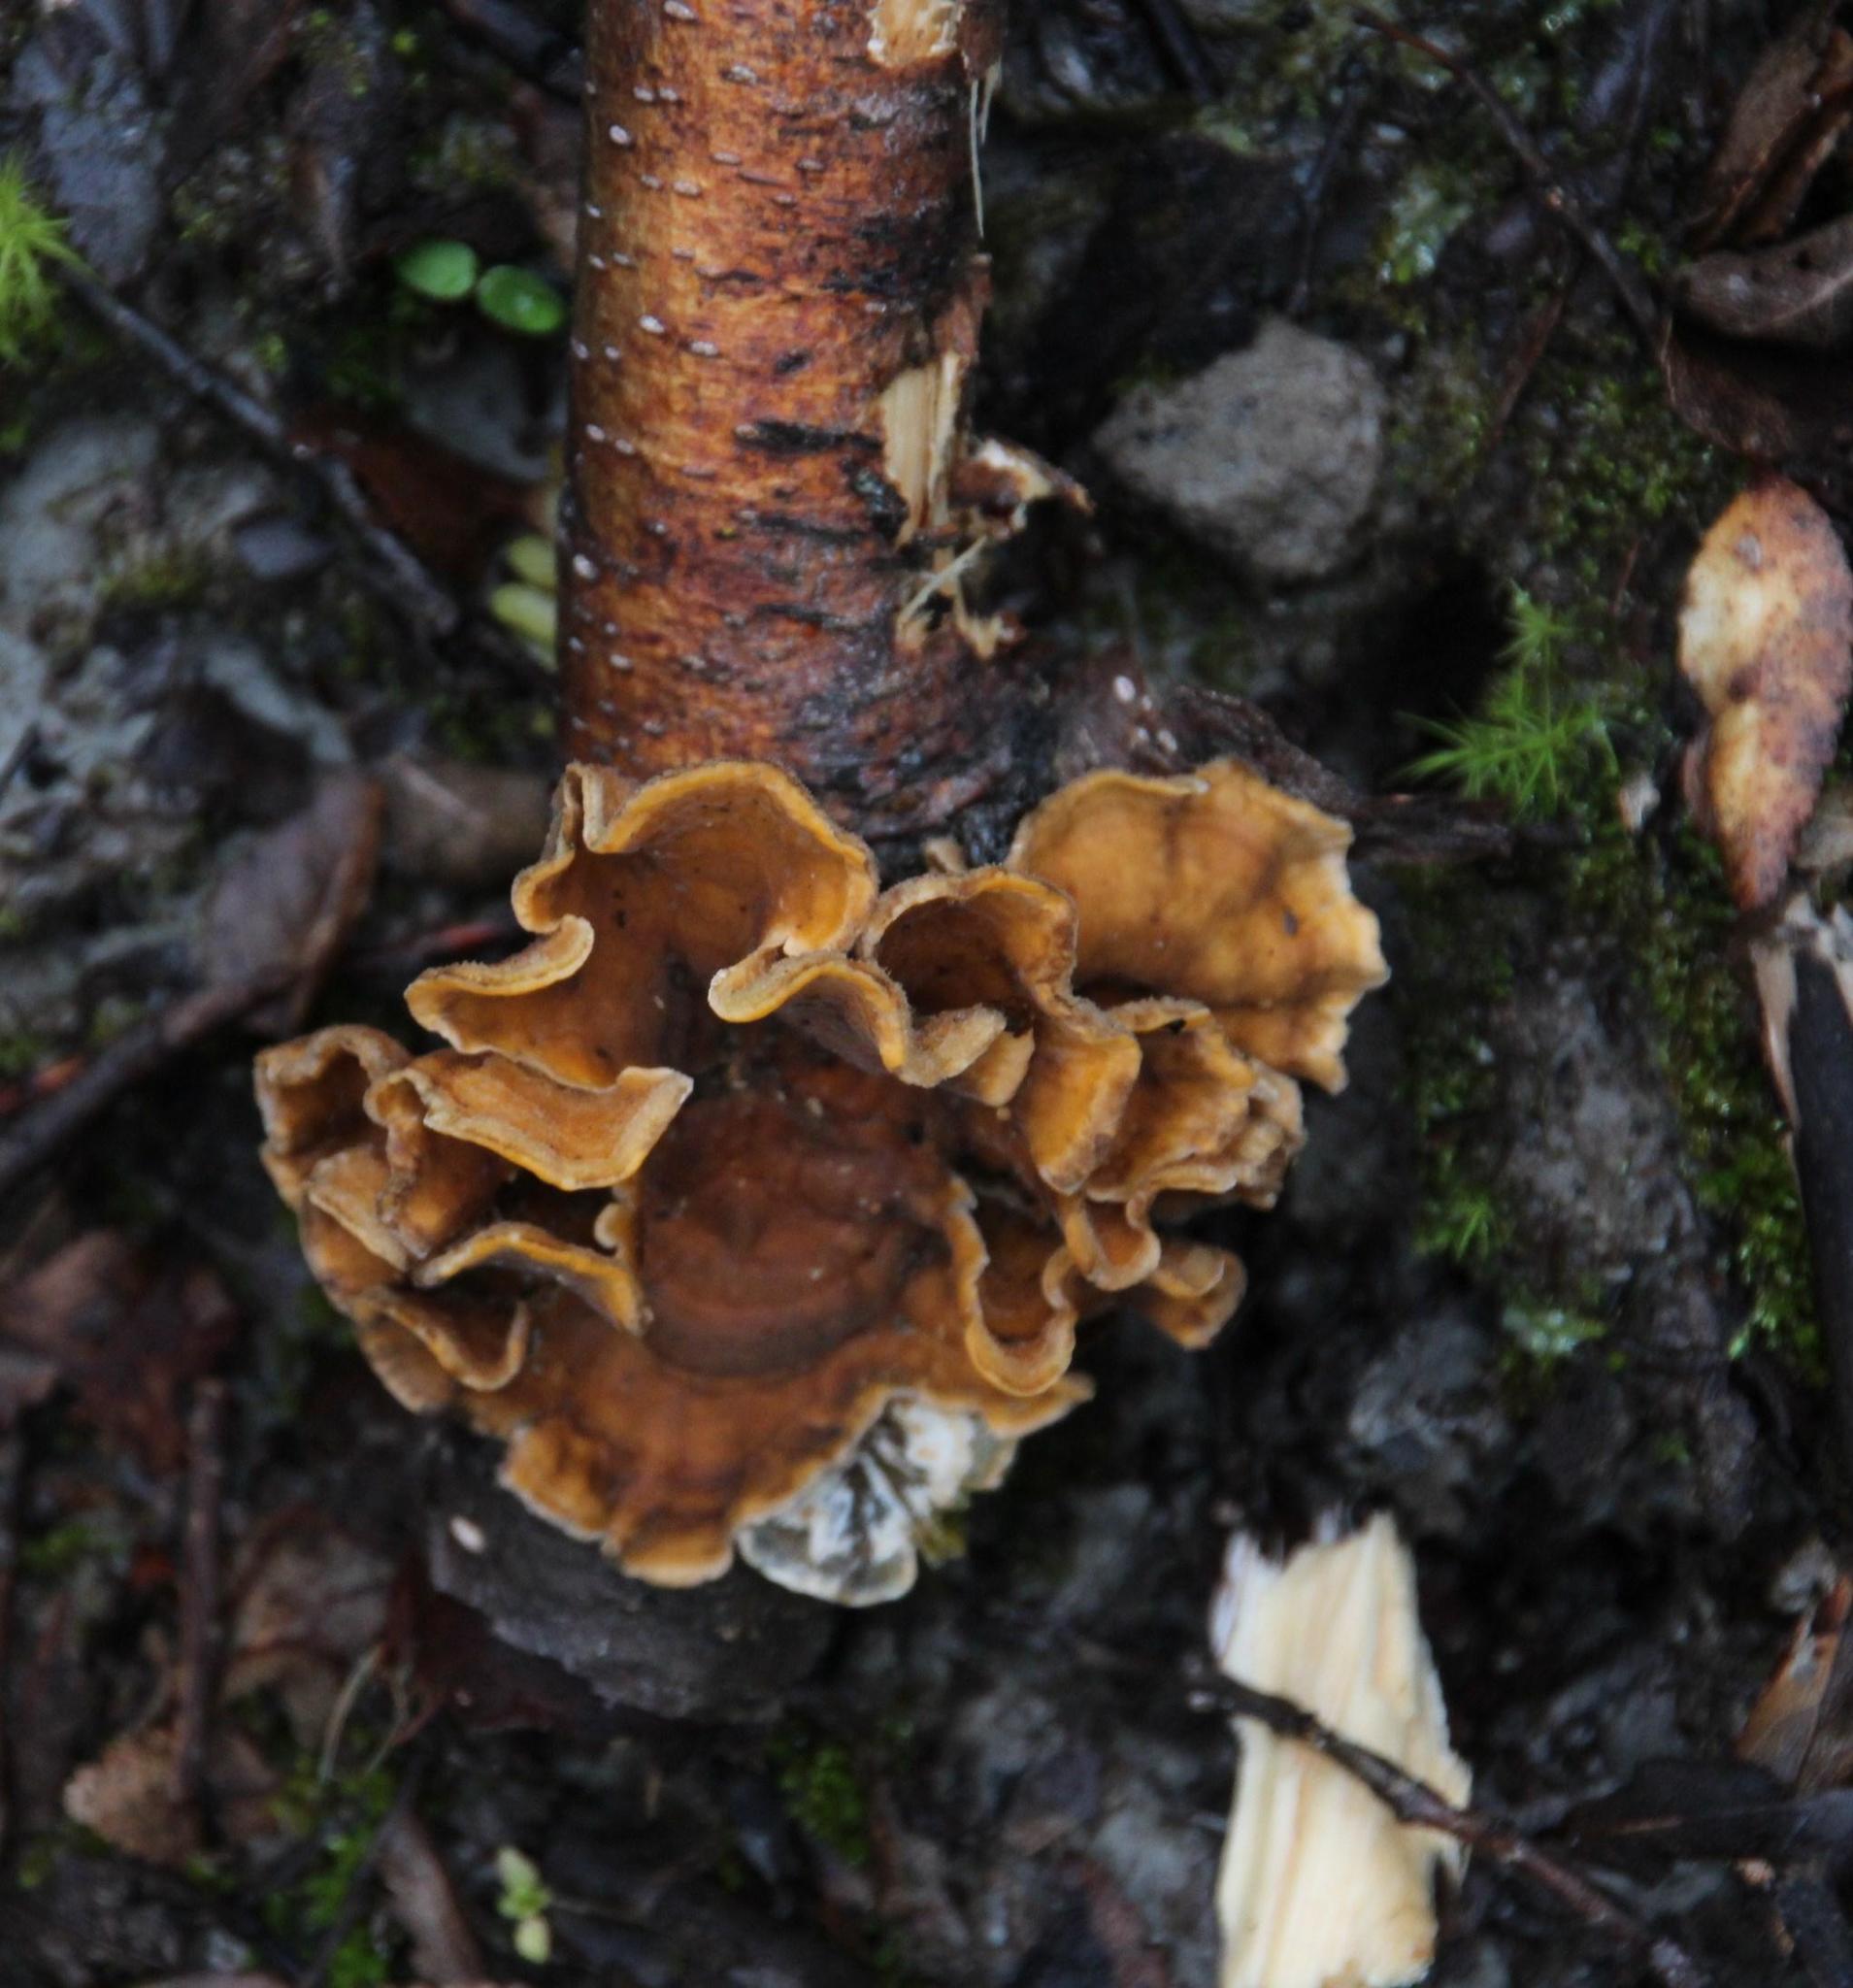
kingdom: Fungi
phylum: Basidiomycota
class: Agaricomycetes
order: Russulales
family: Stereaceae
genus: Stereum
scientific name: Stereum hirsutum
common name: Hairy curtain crust
